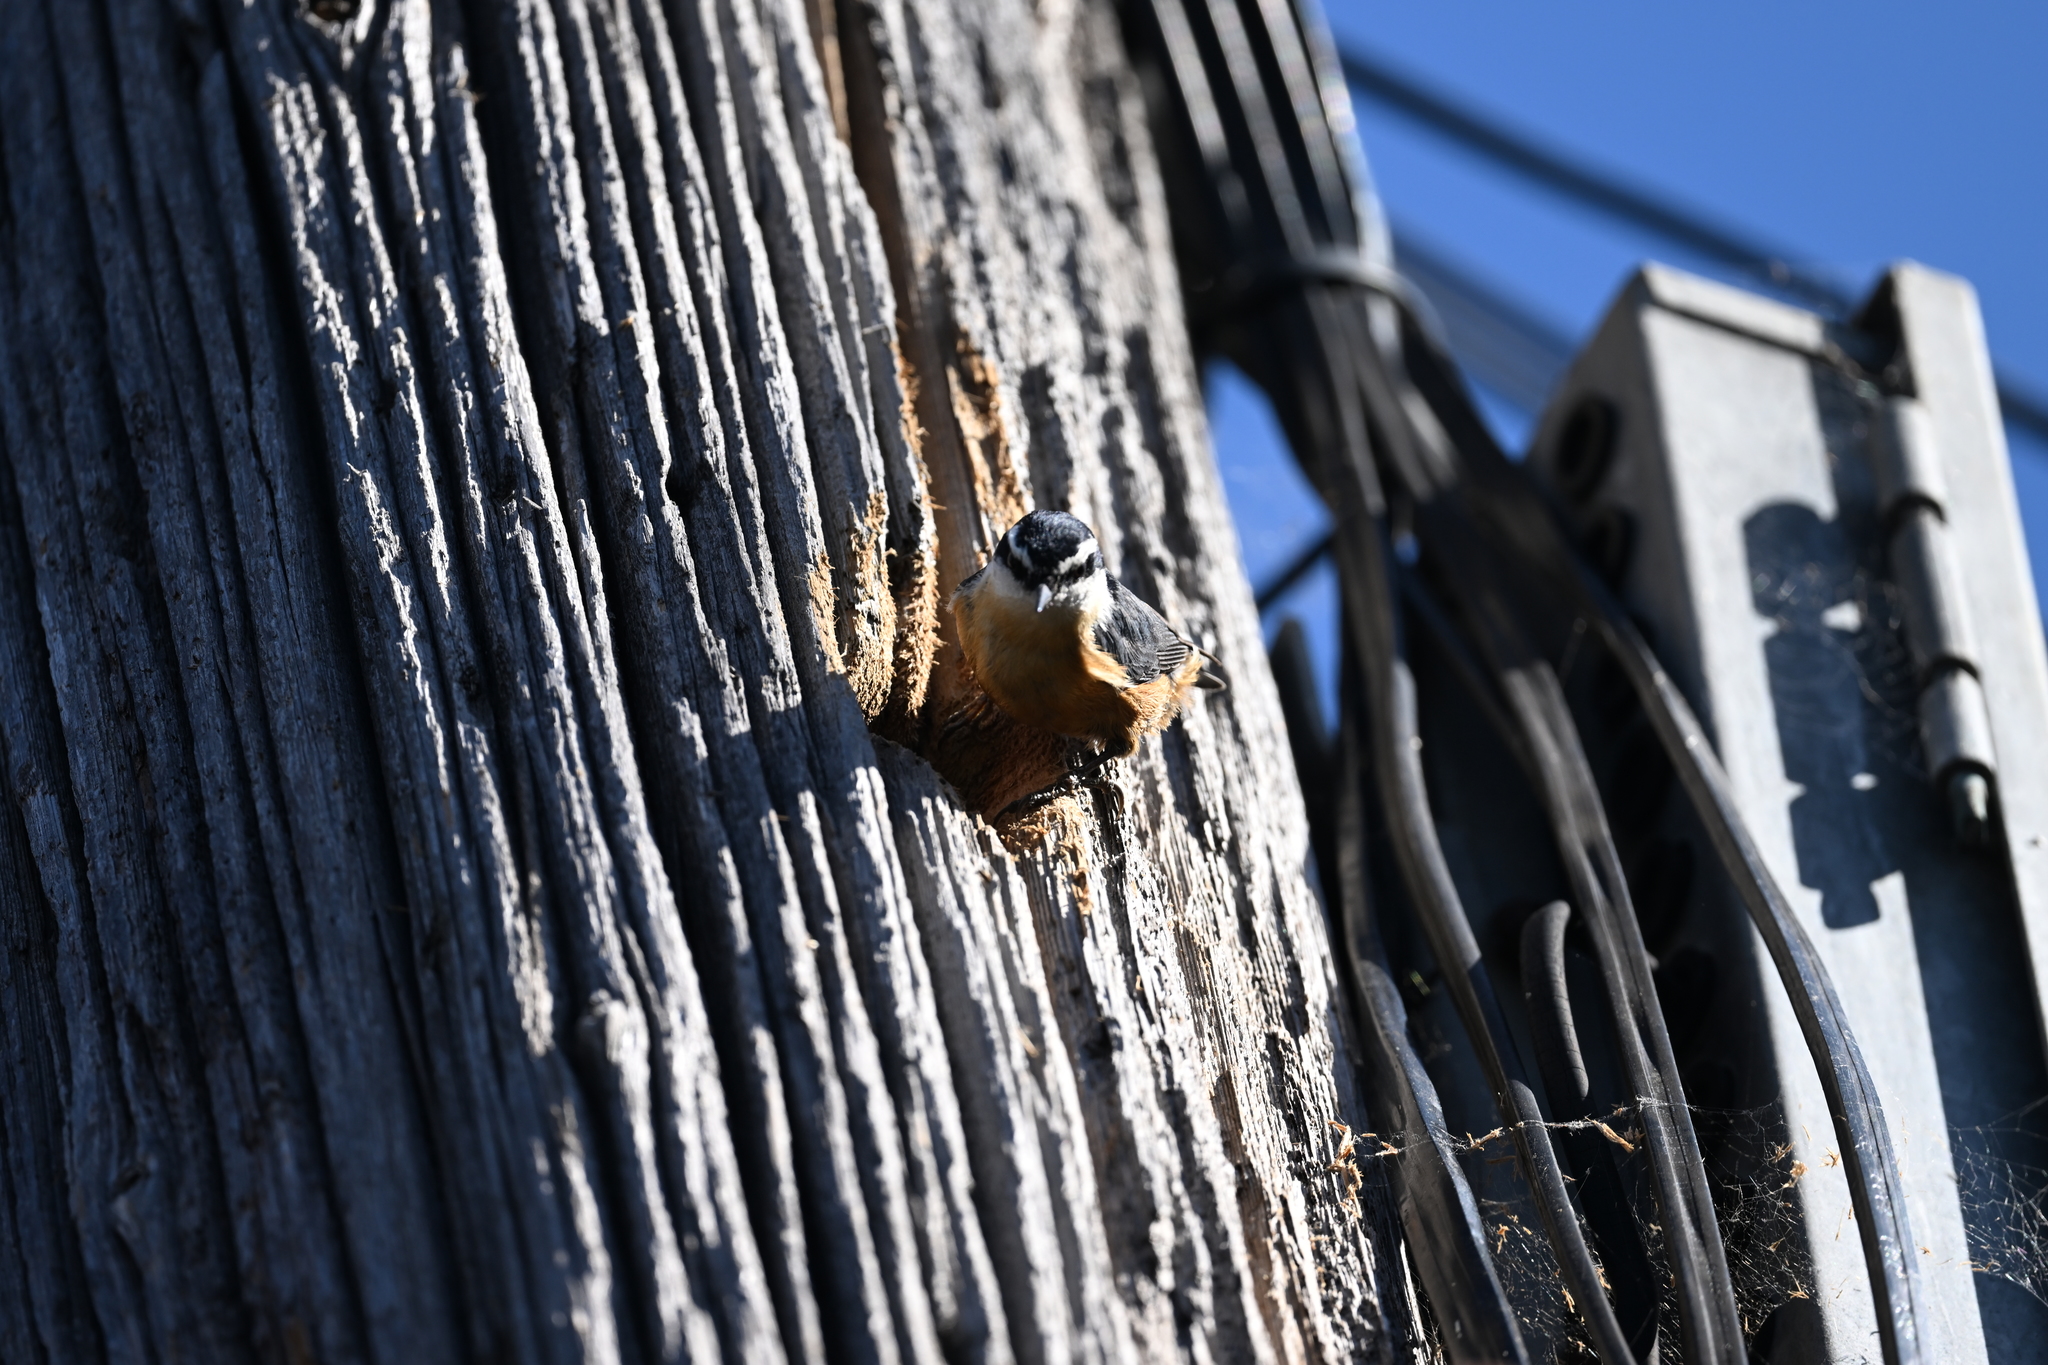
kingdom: Animalia
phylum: Chordata
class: Aves
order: Passeriformes
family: Sittidae
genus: Sitta
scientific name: Sitta canadensis
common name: Red-breasted nuthatch
